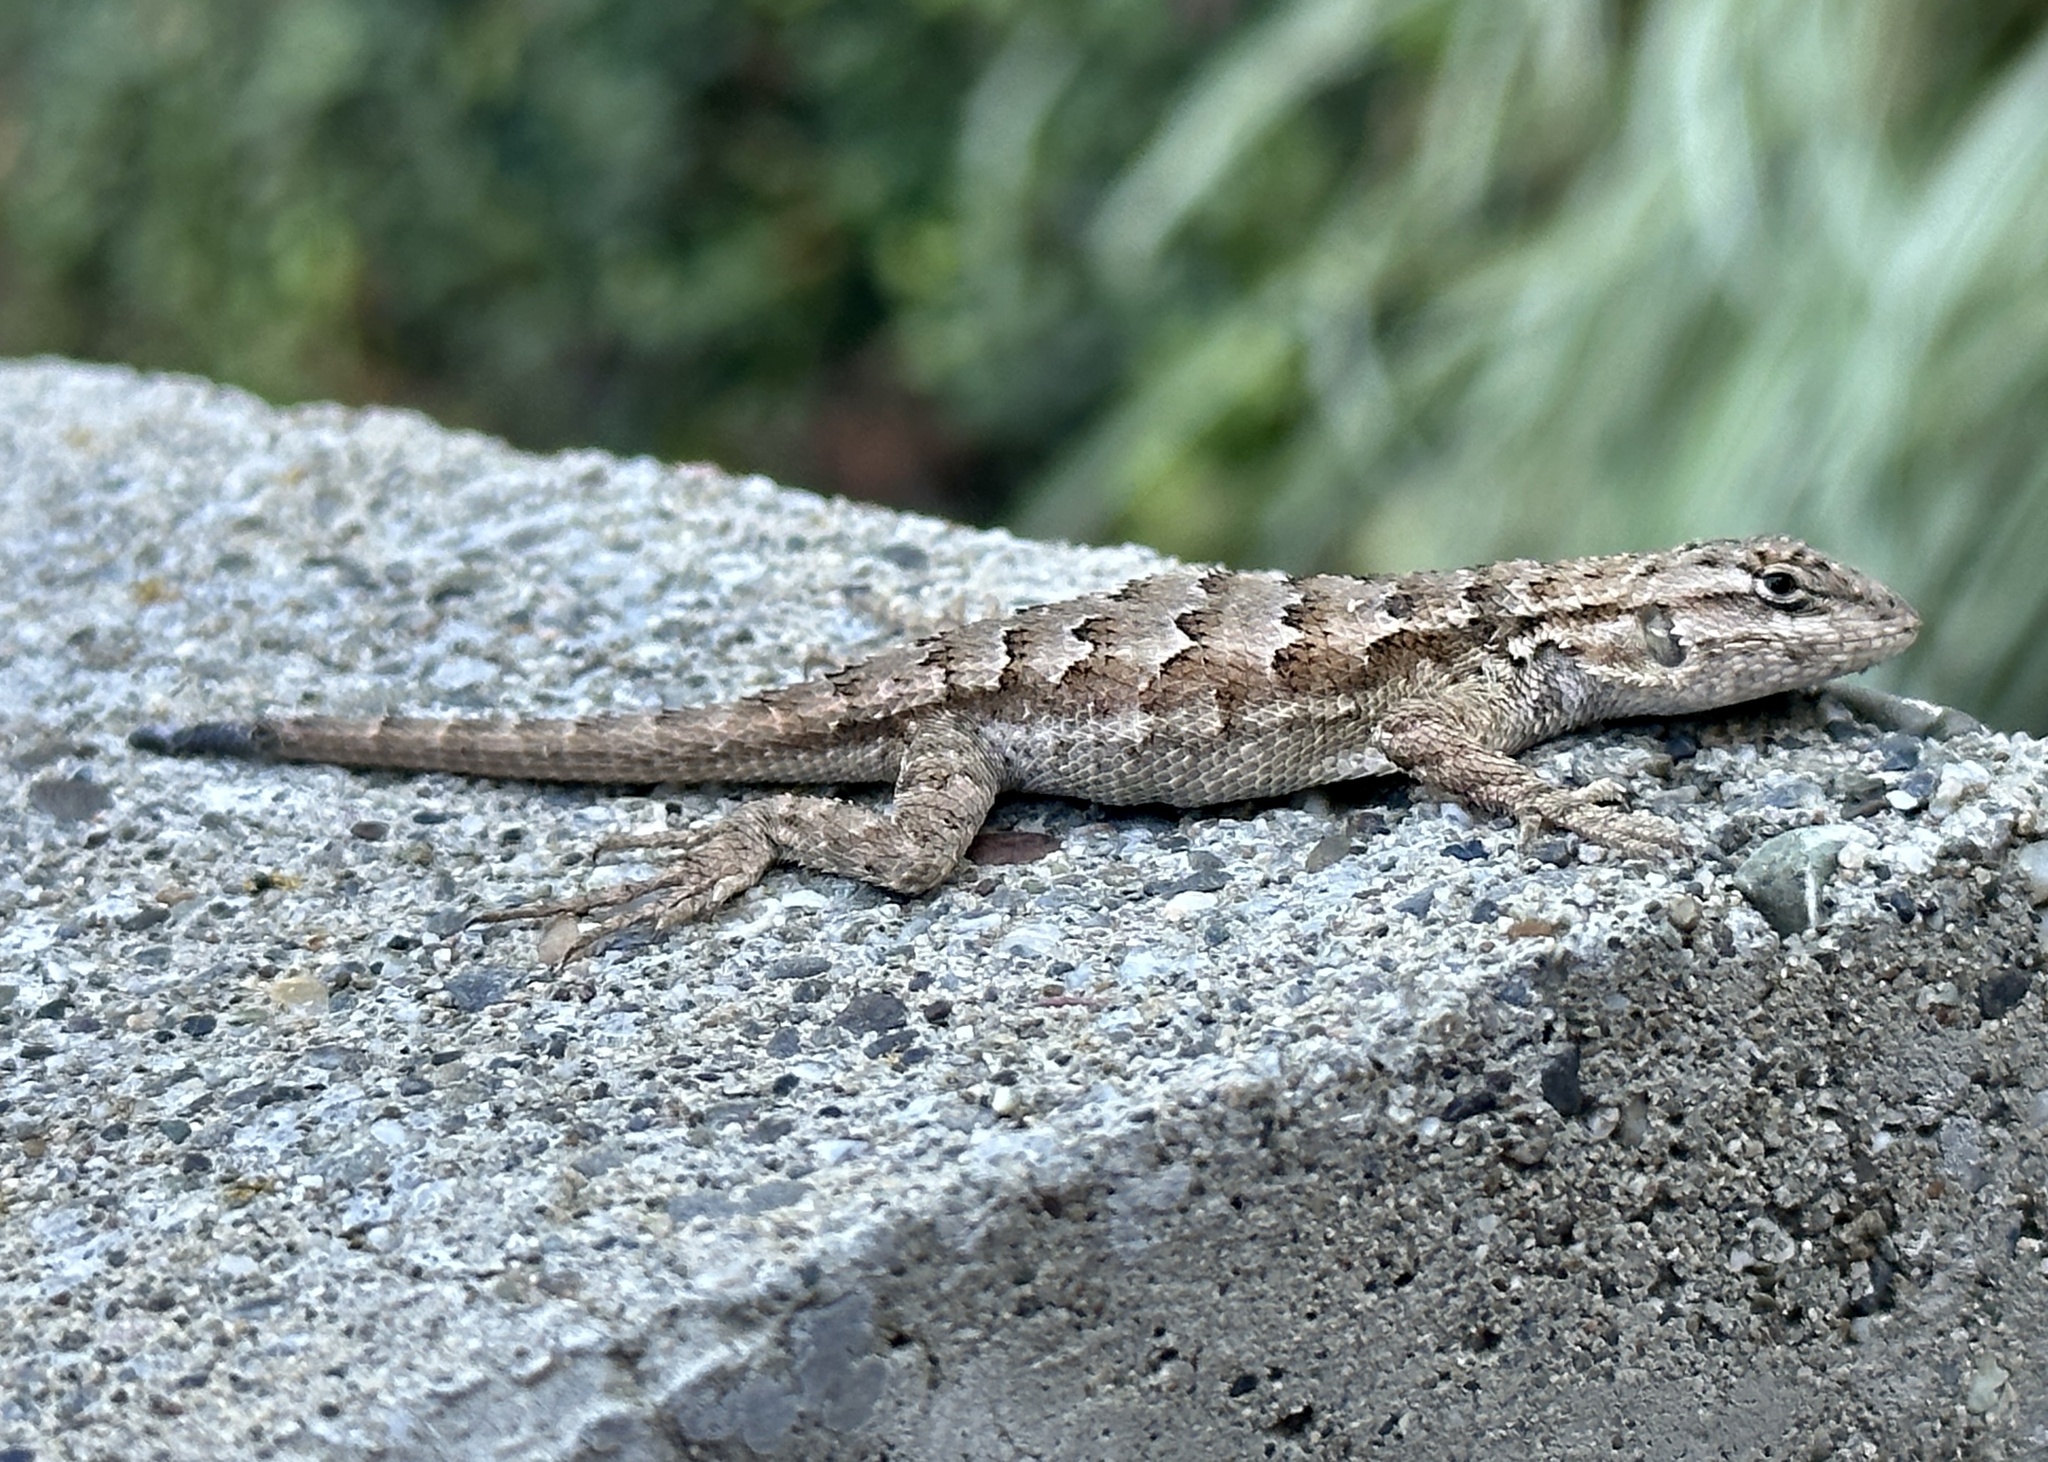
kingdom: Animalia
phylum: Chordata
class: Squamata
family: Phrynosomatidae
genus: Sceloporus
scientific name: Sceloporus occidentalis
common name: Western fence lizard
